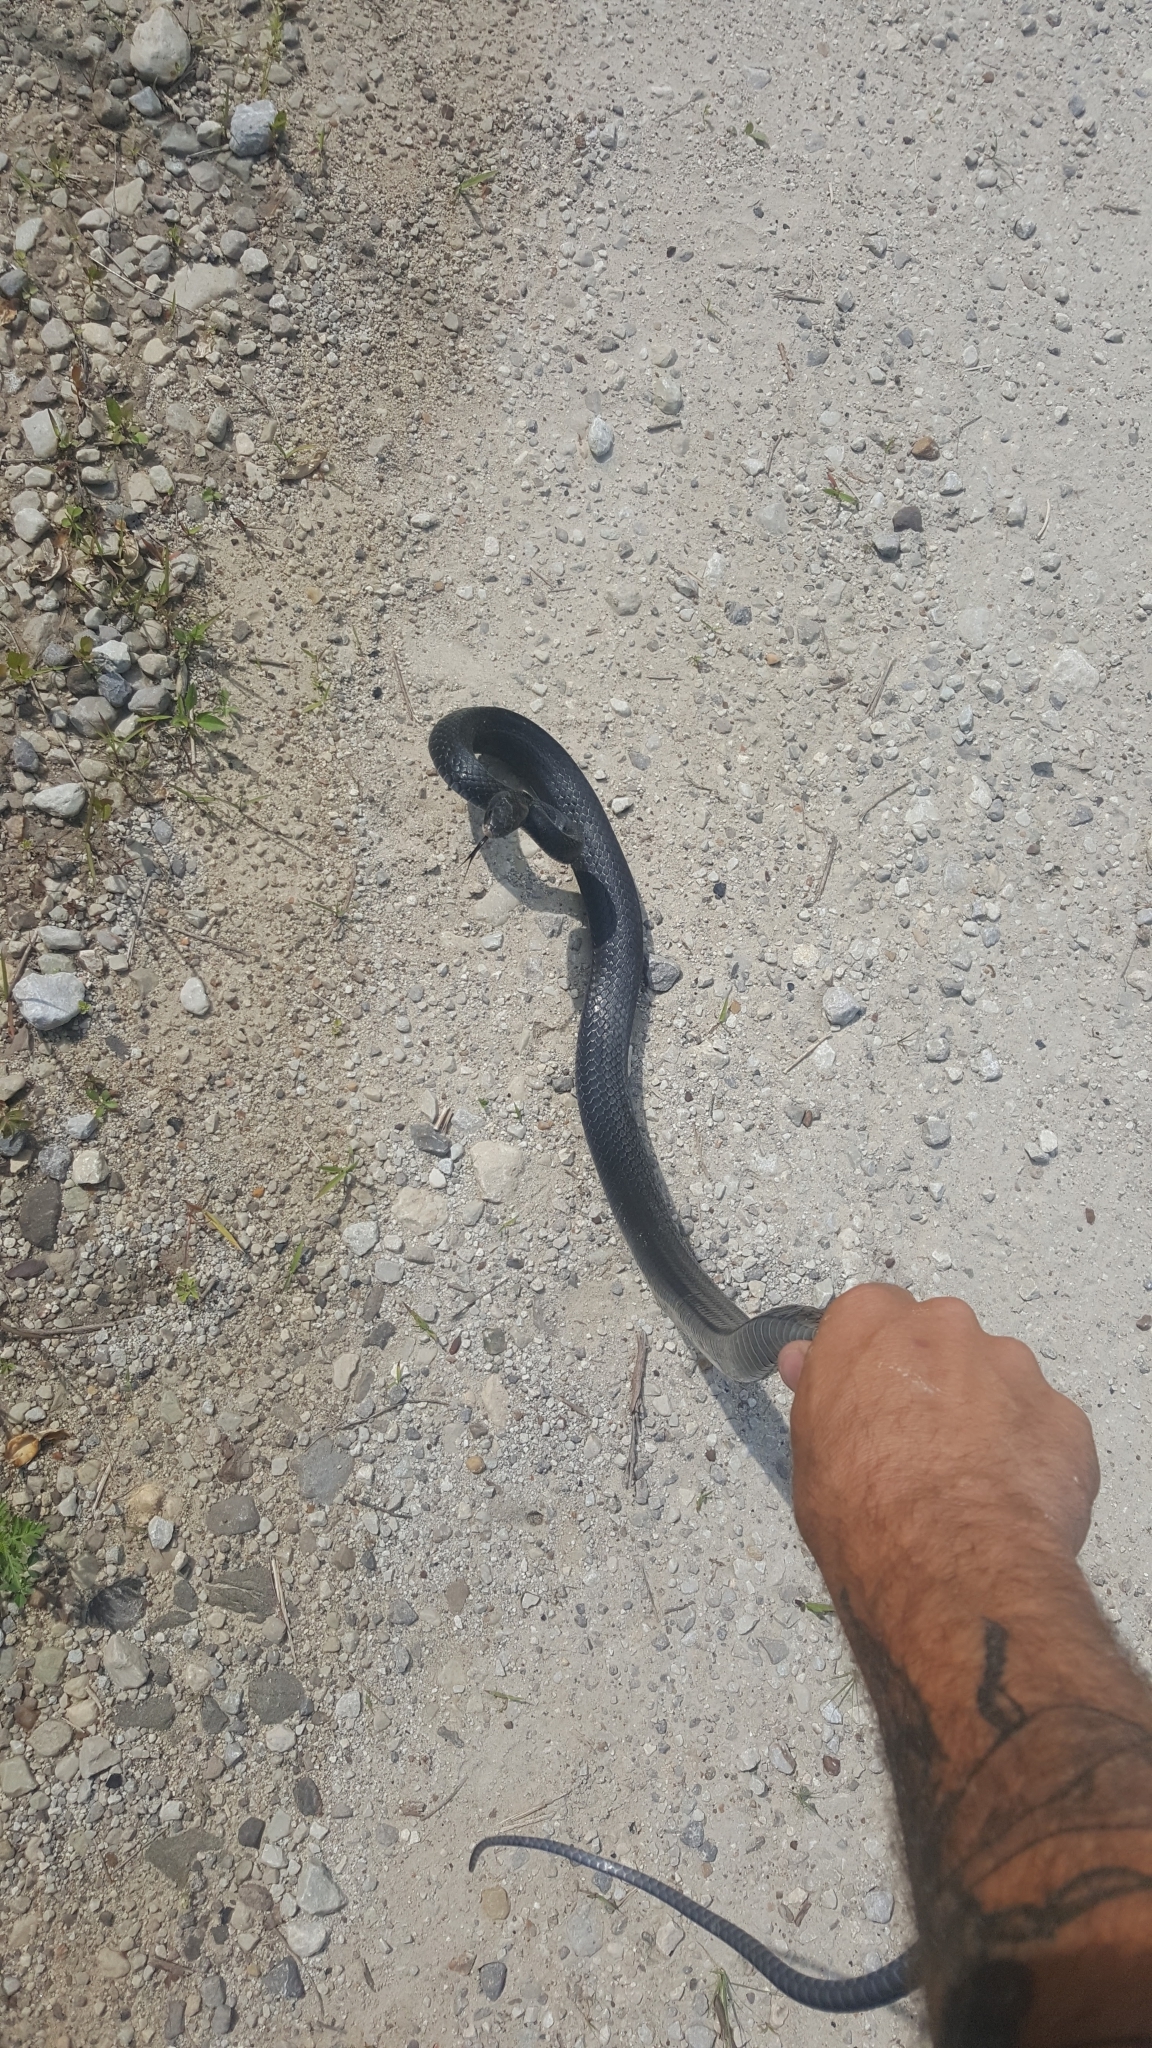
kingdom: Animalia
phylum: Chordata
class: Squamata
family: Colubridae
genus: Coluber
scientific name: Coluber constrictor
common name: Eastern racer
